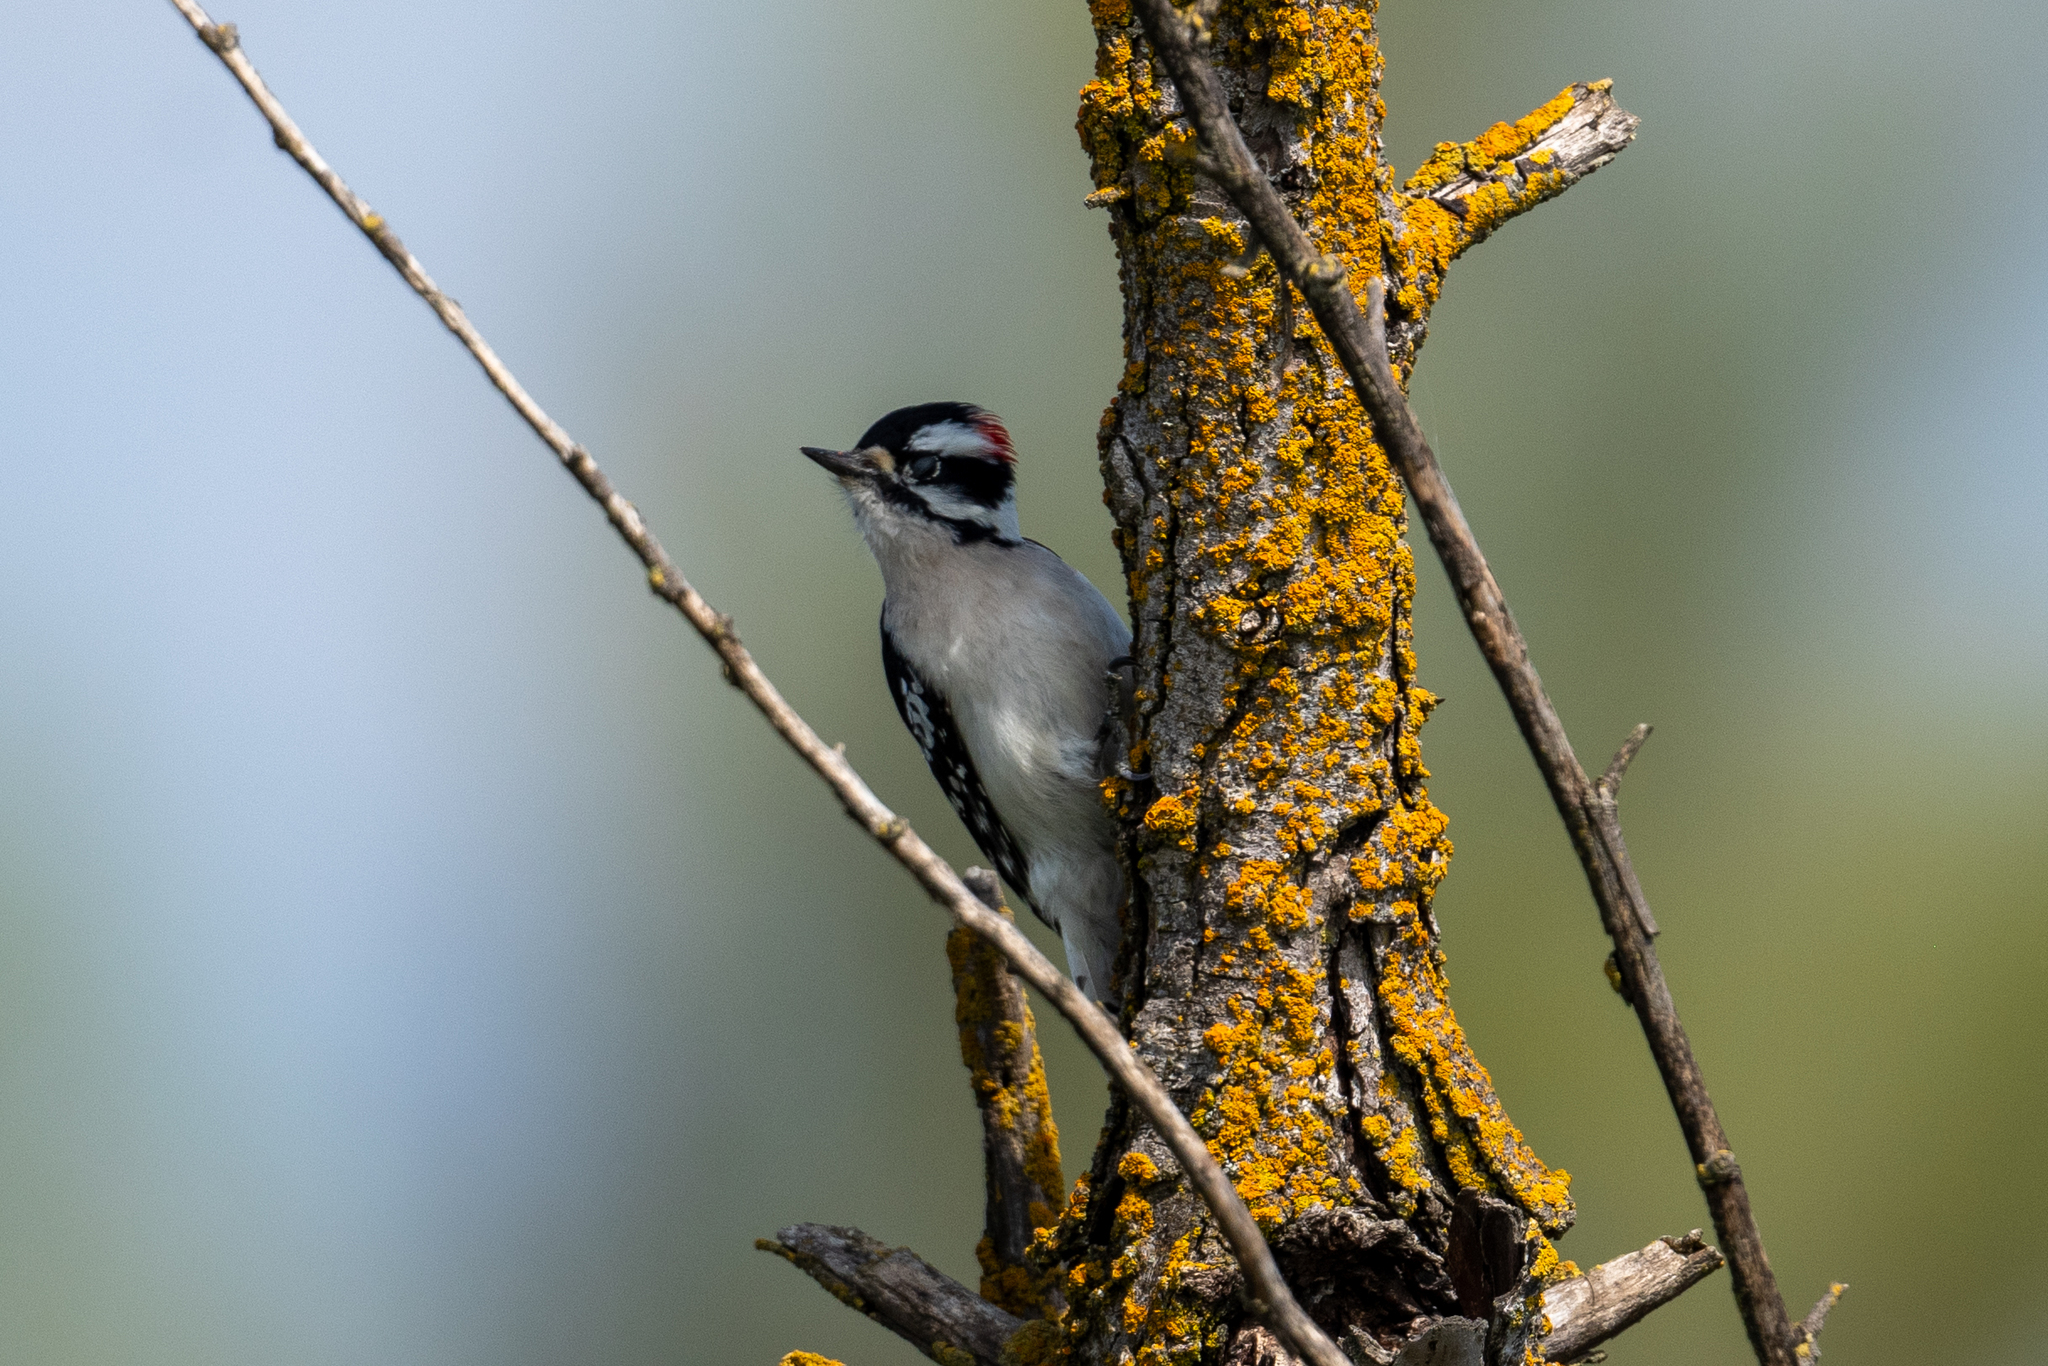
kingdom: Animalia
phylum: Chordata
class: Aves
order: Piciformes
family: Picidae
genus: Dryobates
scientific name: Dryobates pubescens
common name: Downy woodpecker
